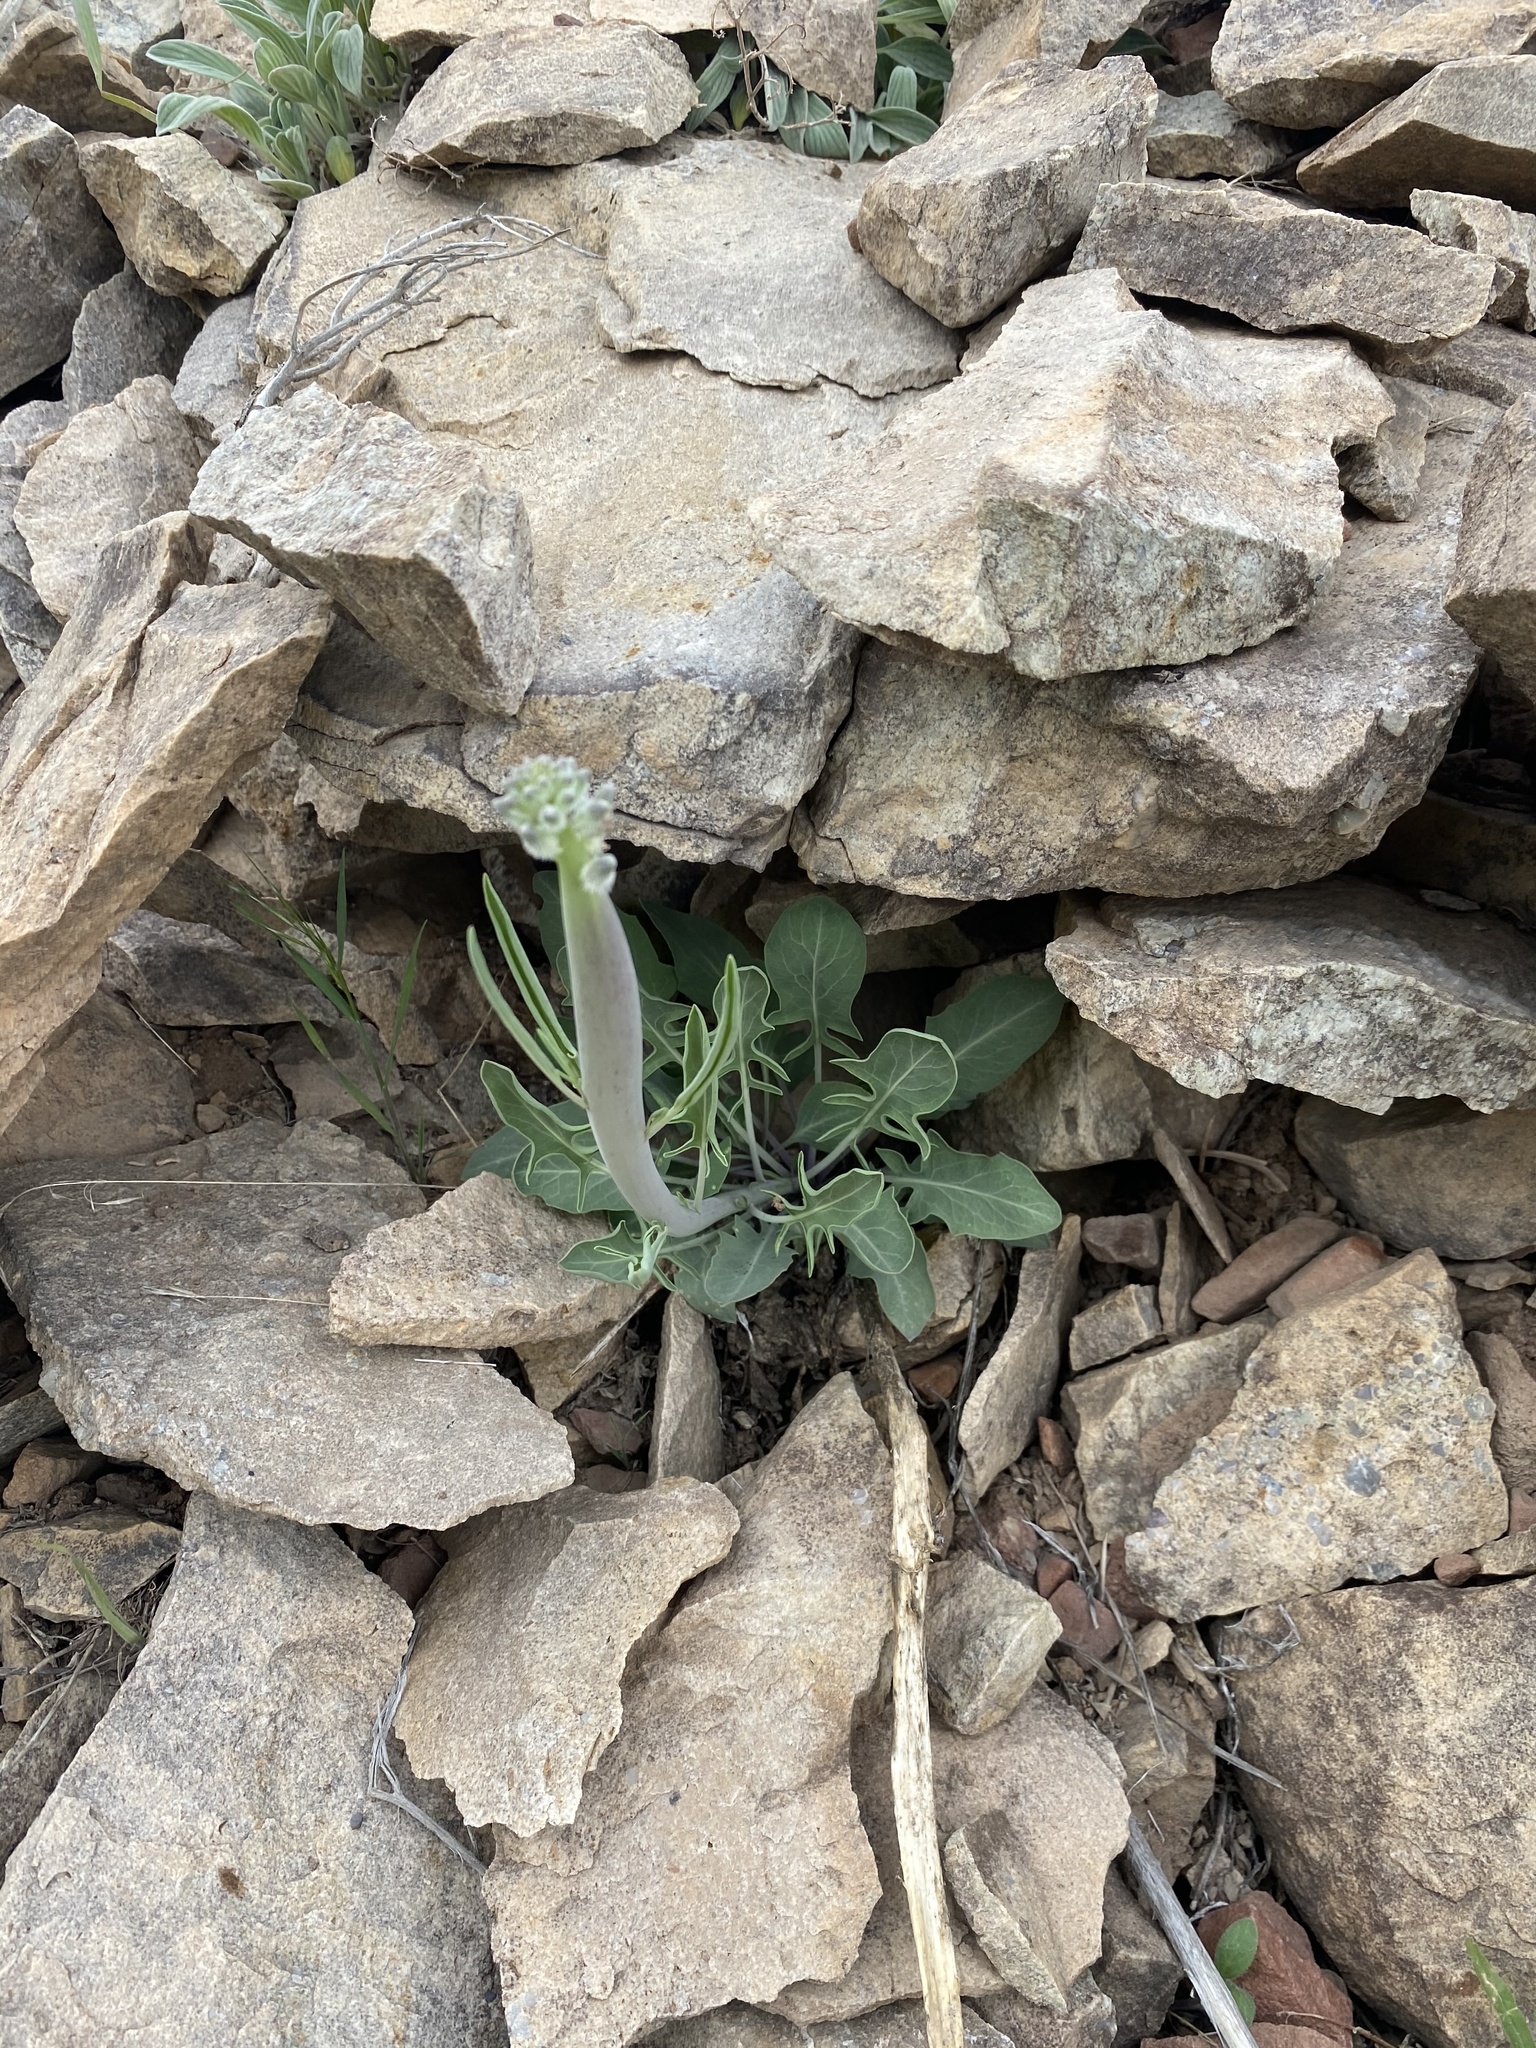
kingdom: Plantae
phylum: Tracheophyta
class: Magnoliopsida
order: Brassicales
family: Brassicaceae
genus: Streptanthus
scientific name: Streptanthus crassicaulis
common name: Thick-stem wild cabbage
